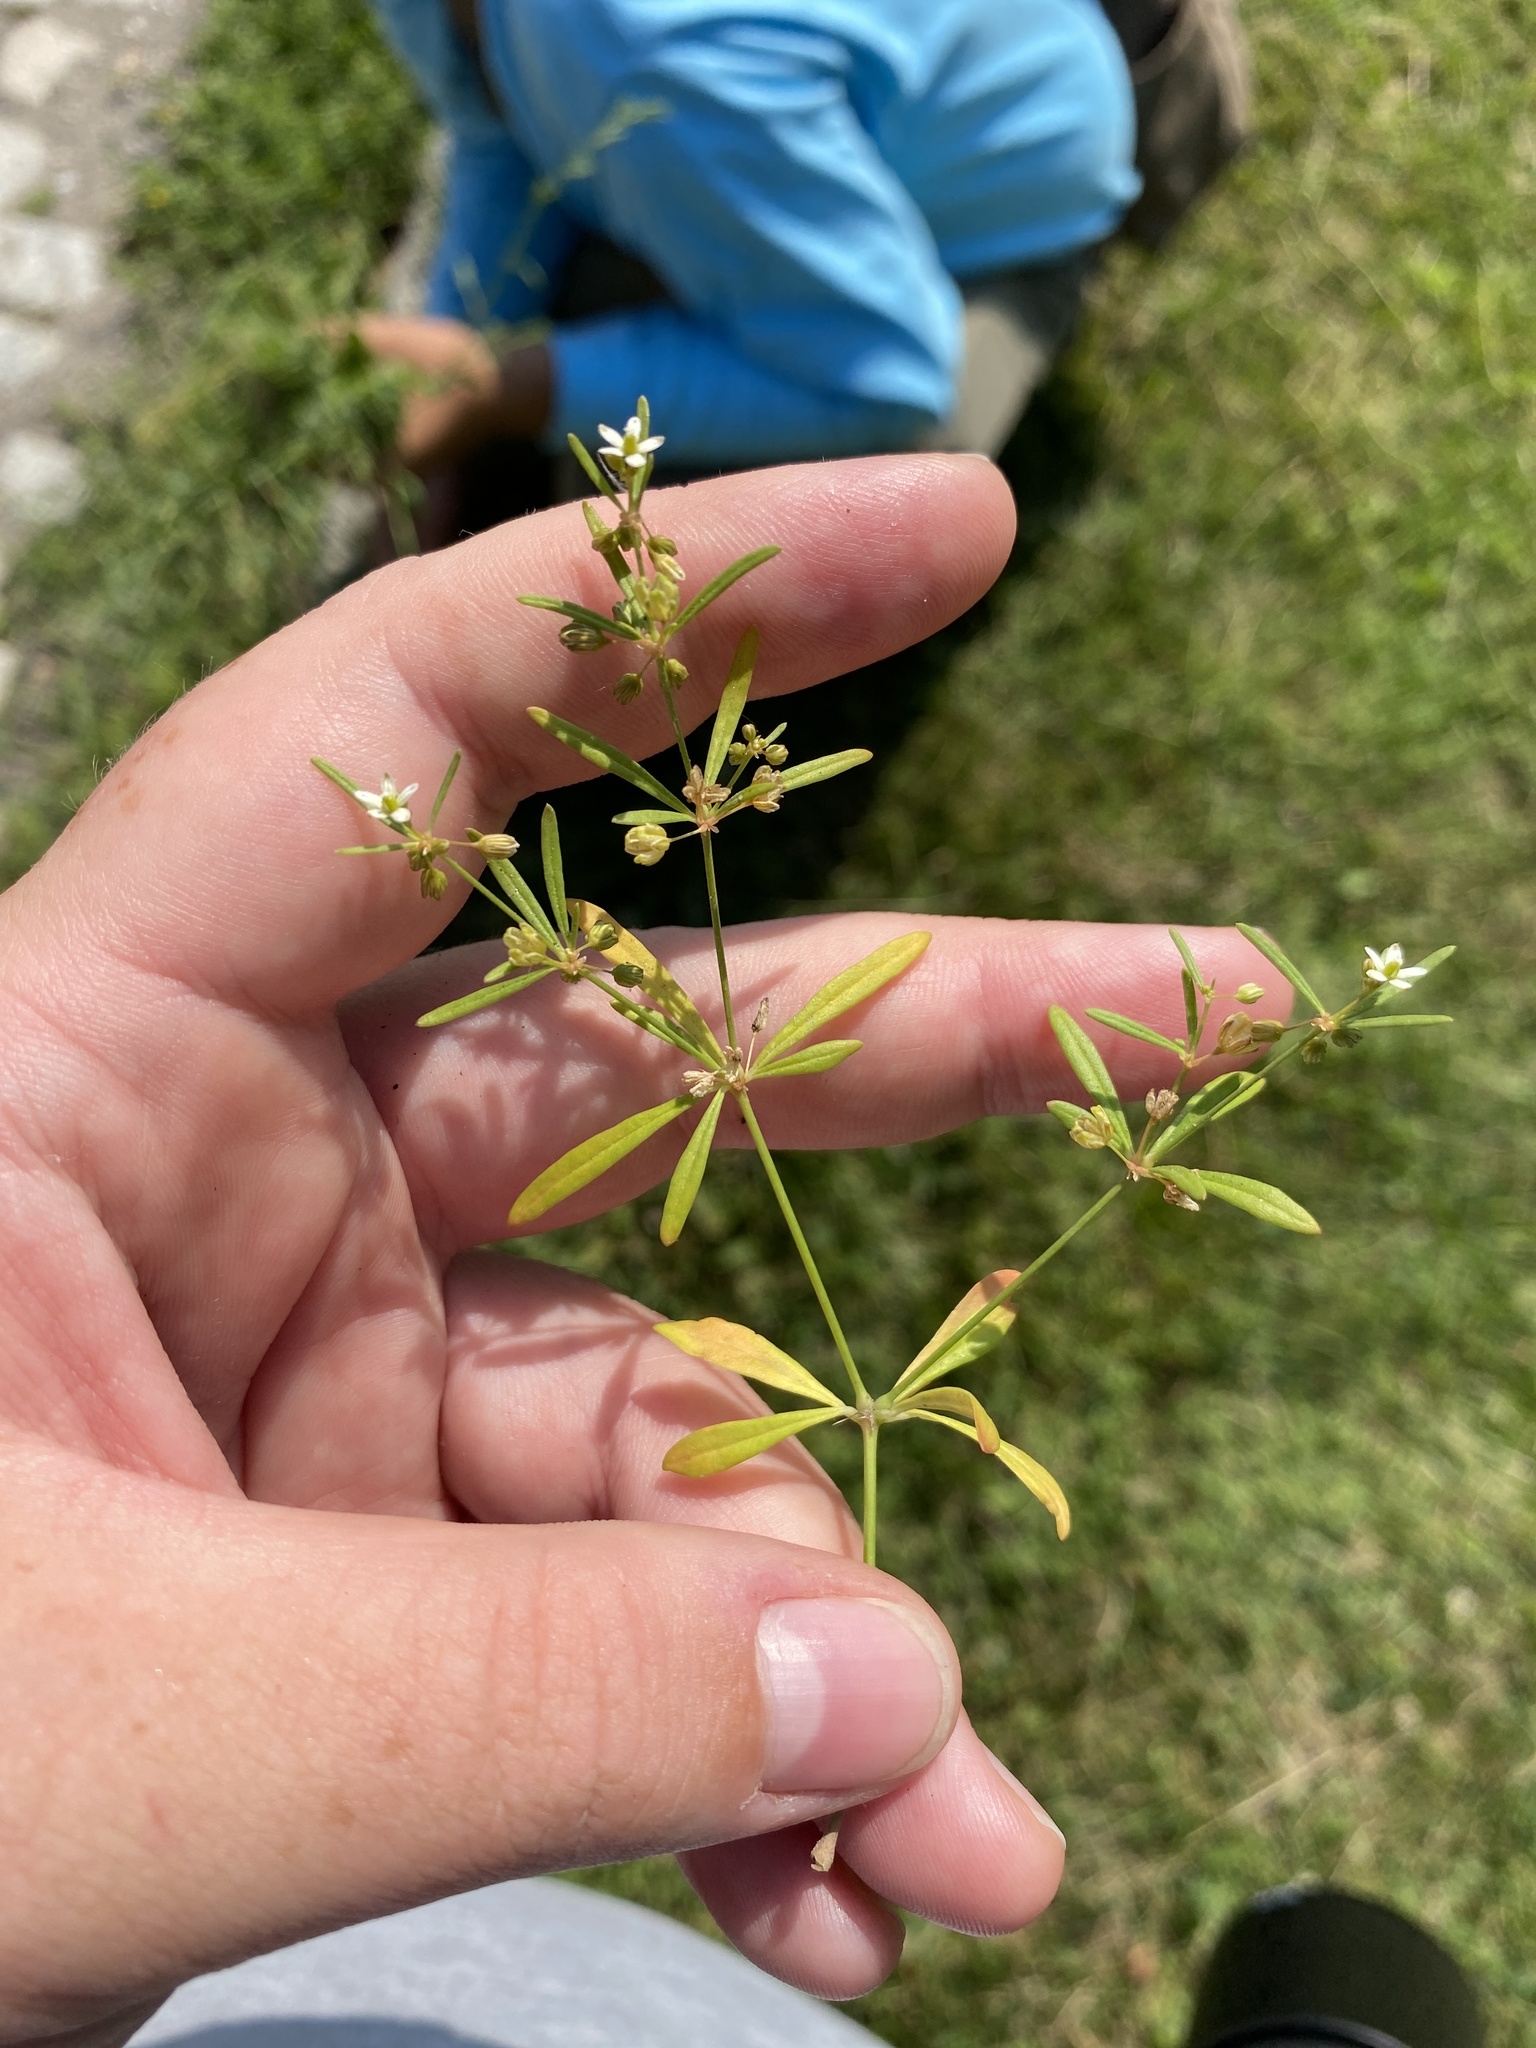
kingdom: Plantae
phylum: Tracheophyta
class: Magnoliopsida
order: Caryophyllales
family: Molluginaceae
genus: Mollugo
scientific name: Mollugo verticillata
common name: Green carpetweed
